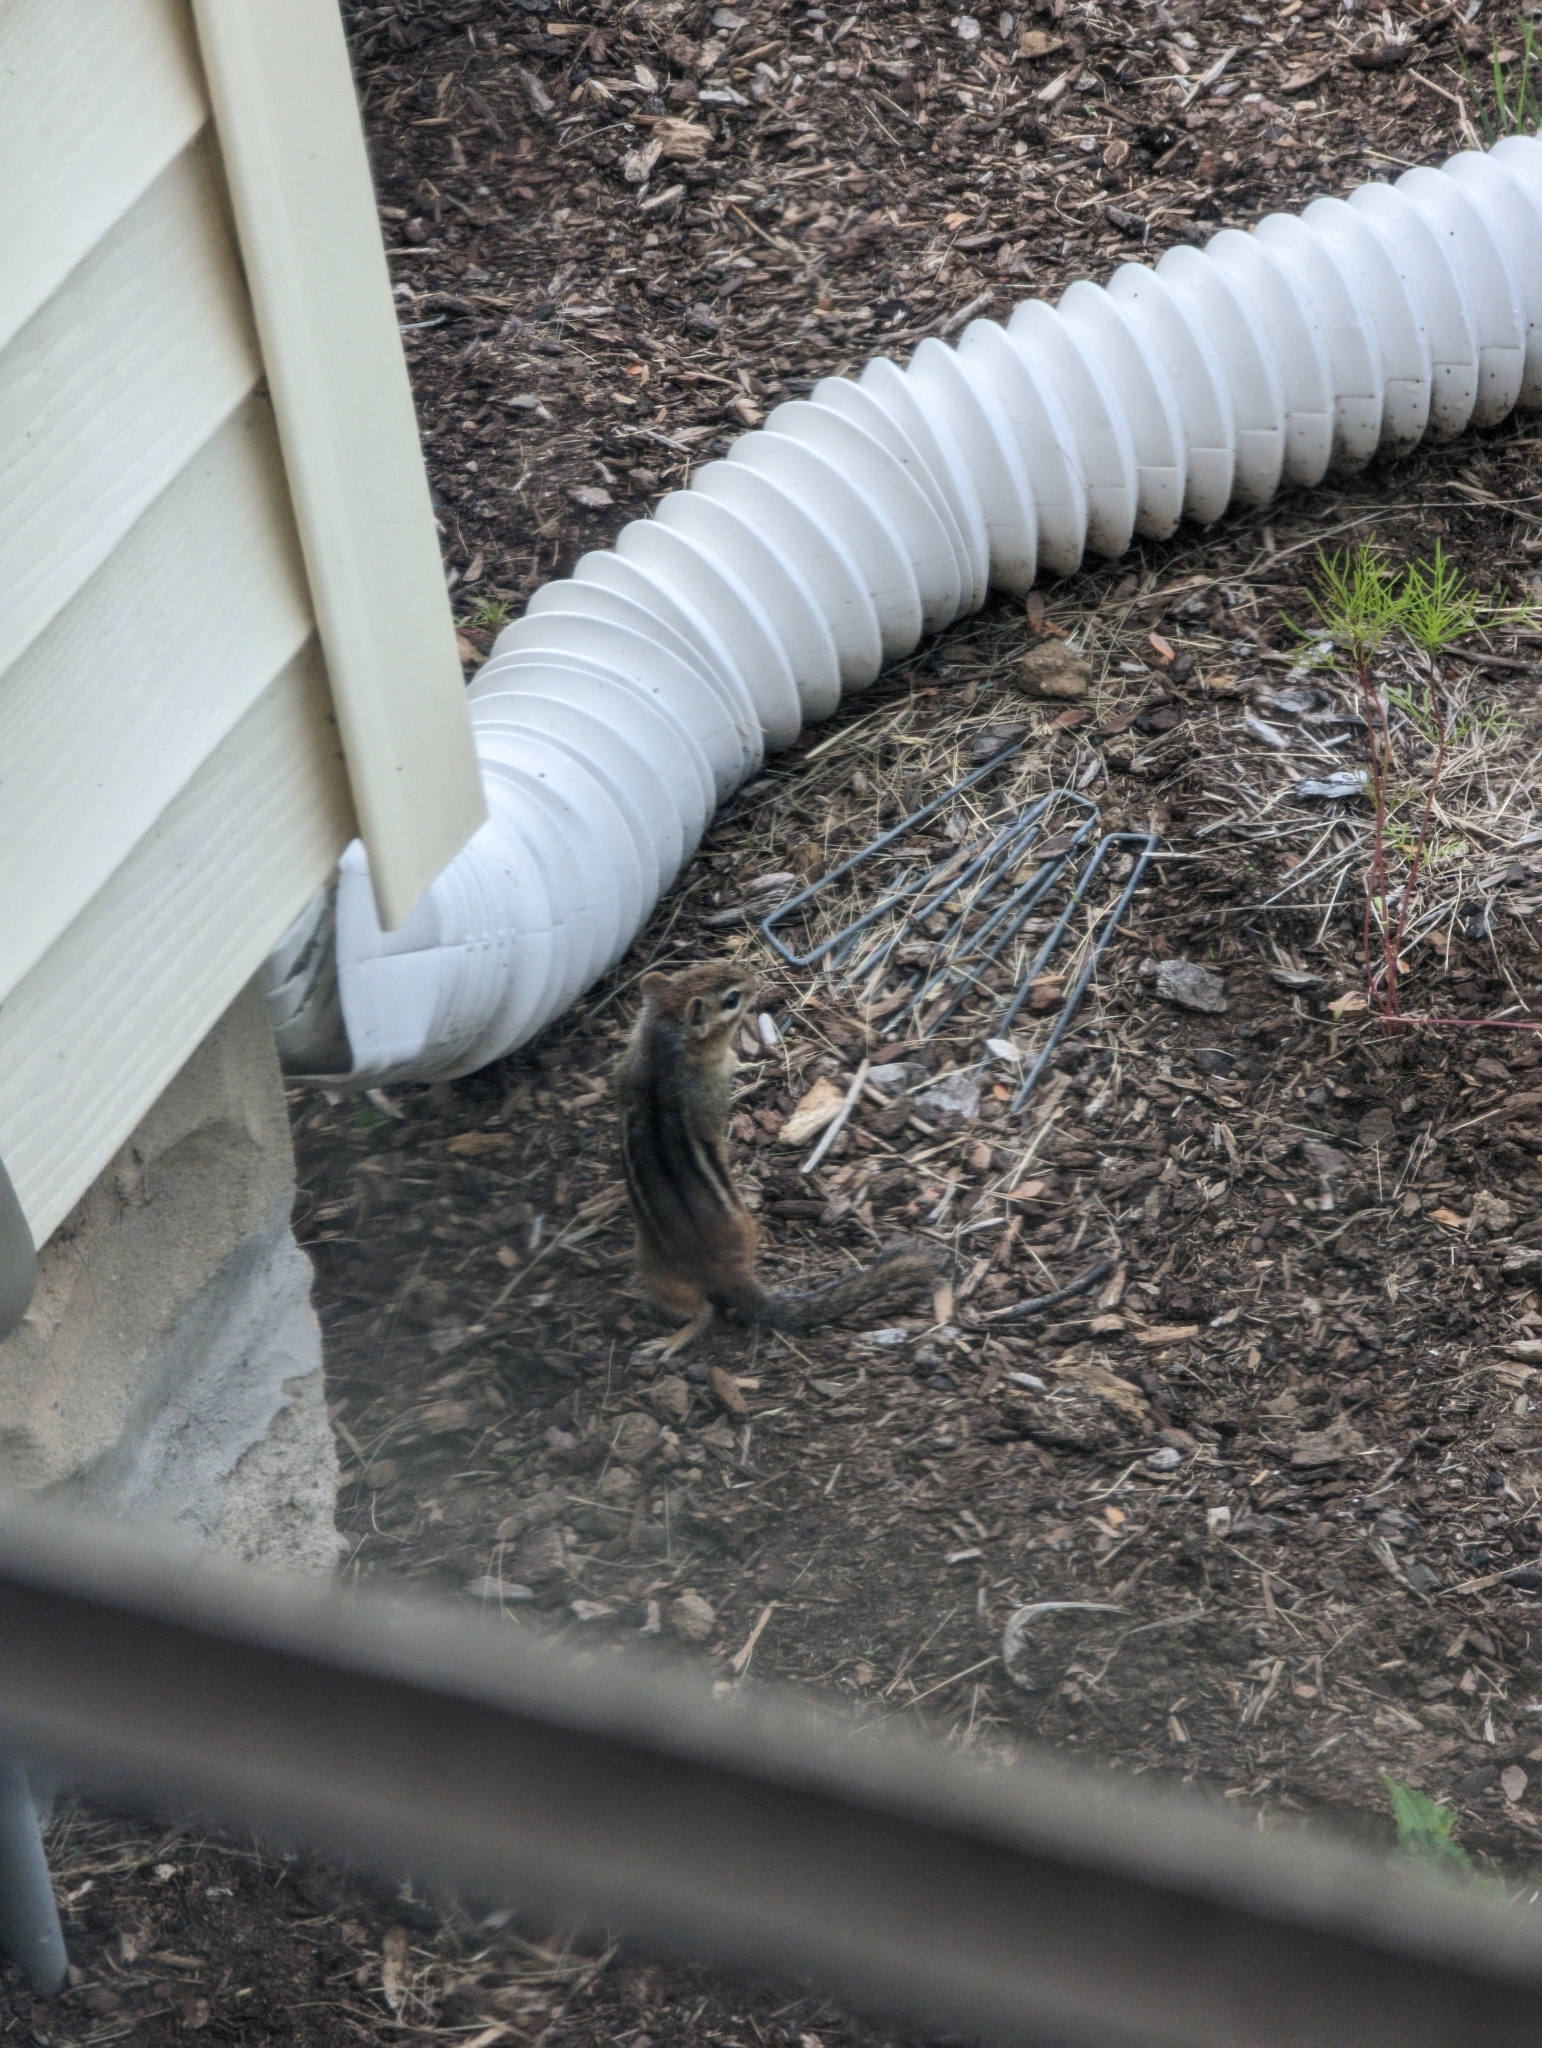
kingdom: Animalia
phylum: Chordata
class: Mammalia
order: Rodentia
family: Sciuridae
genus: Tamias
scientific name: Tamias striatus
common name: Eastern chipmunk
